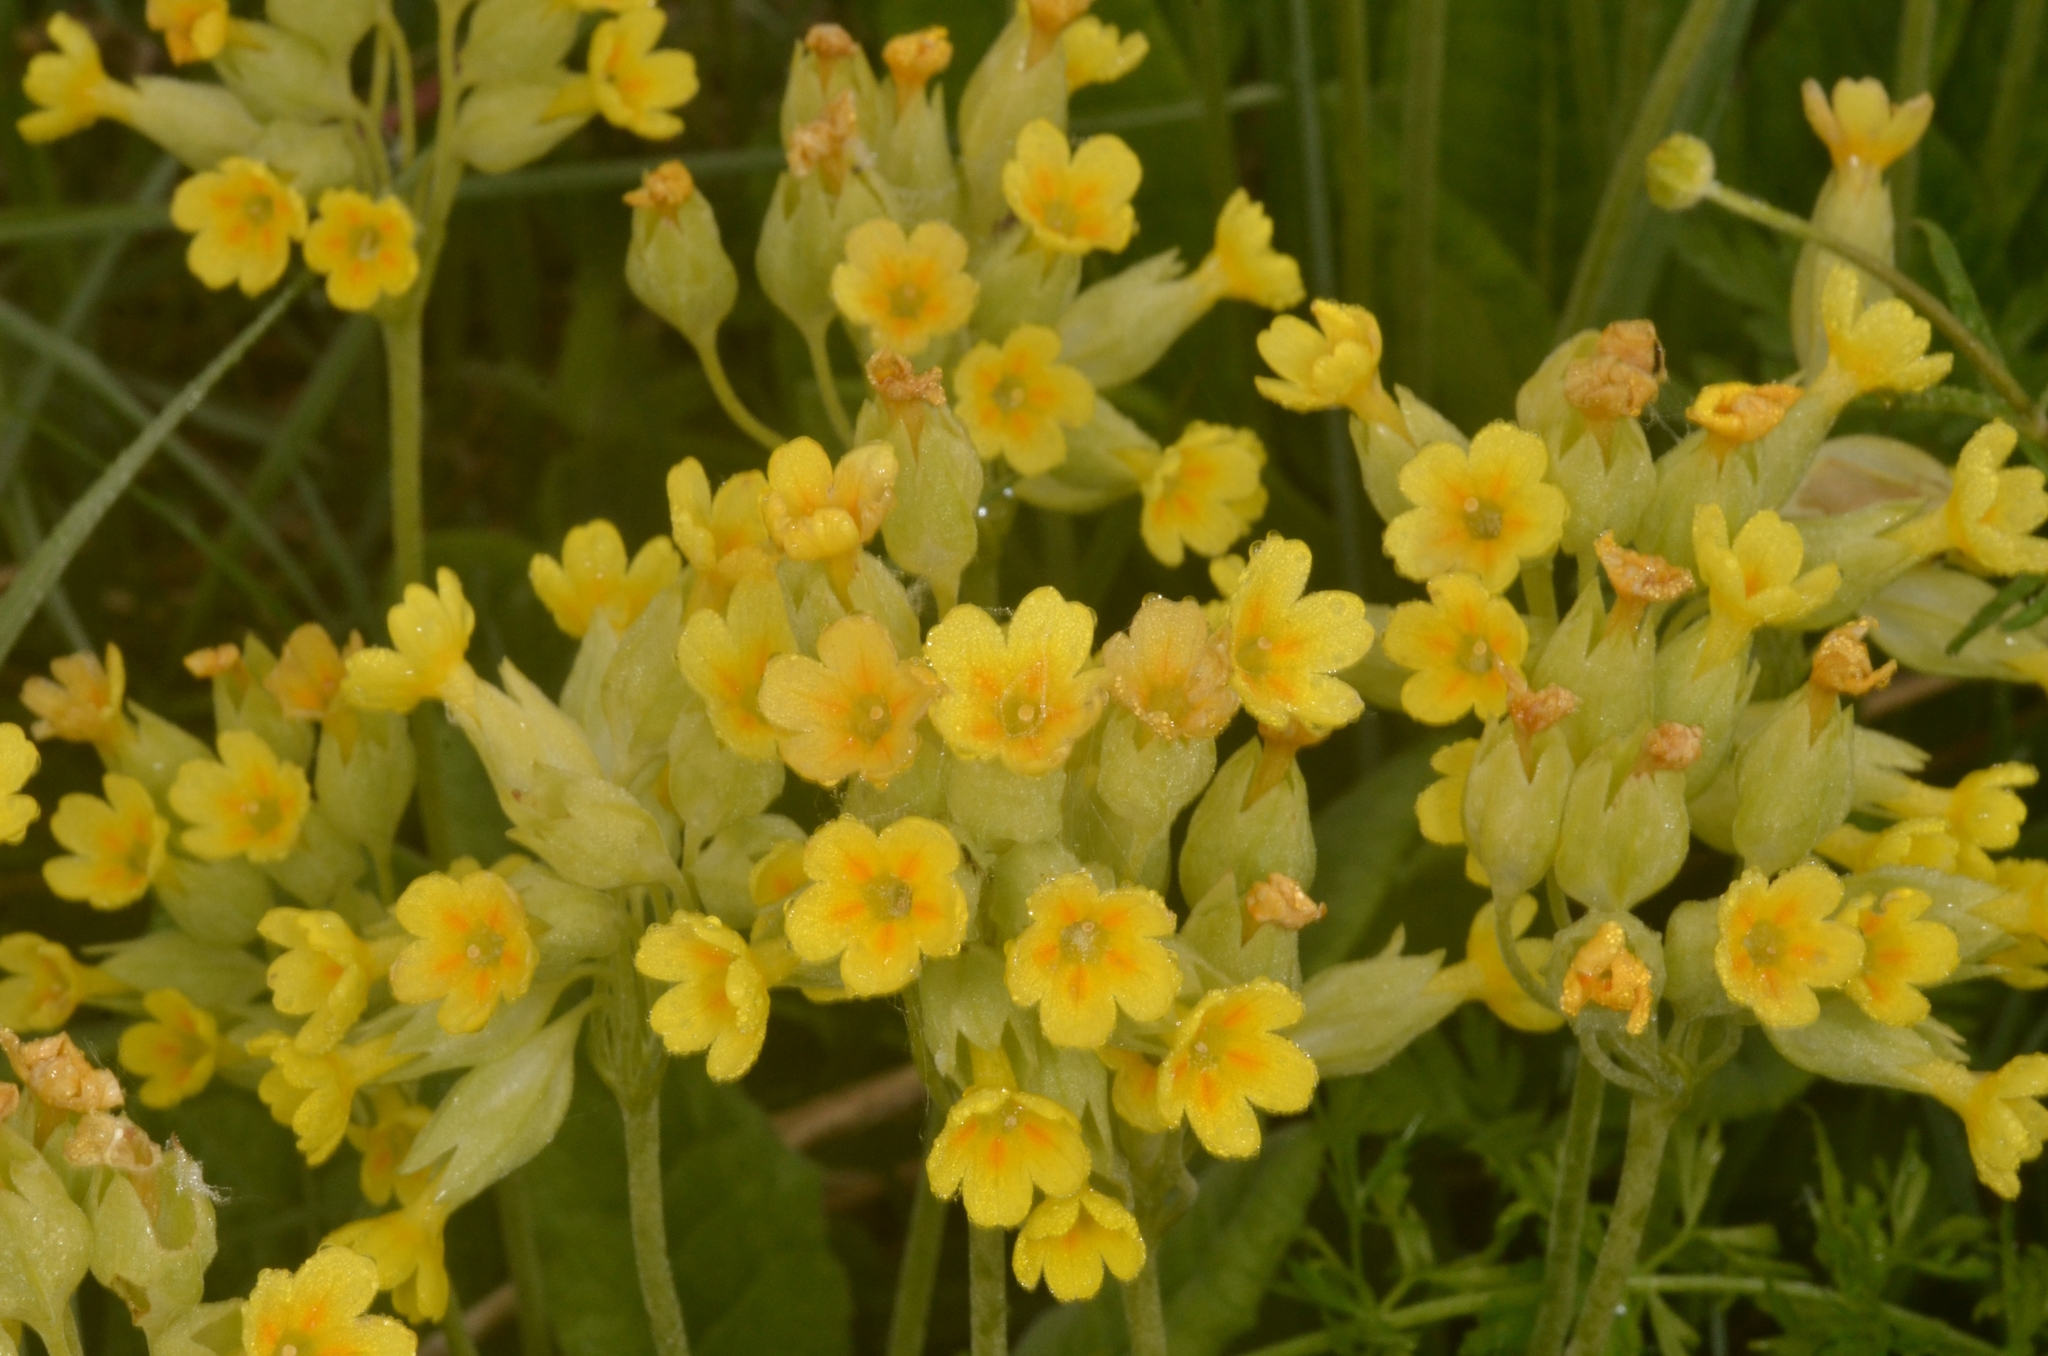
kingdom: Plantae
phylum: Tracheophyta
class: Magnoliopsida
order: Ericales
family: Primulaceae
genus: Primula
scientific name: Primula veris
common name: Cowslip
